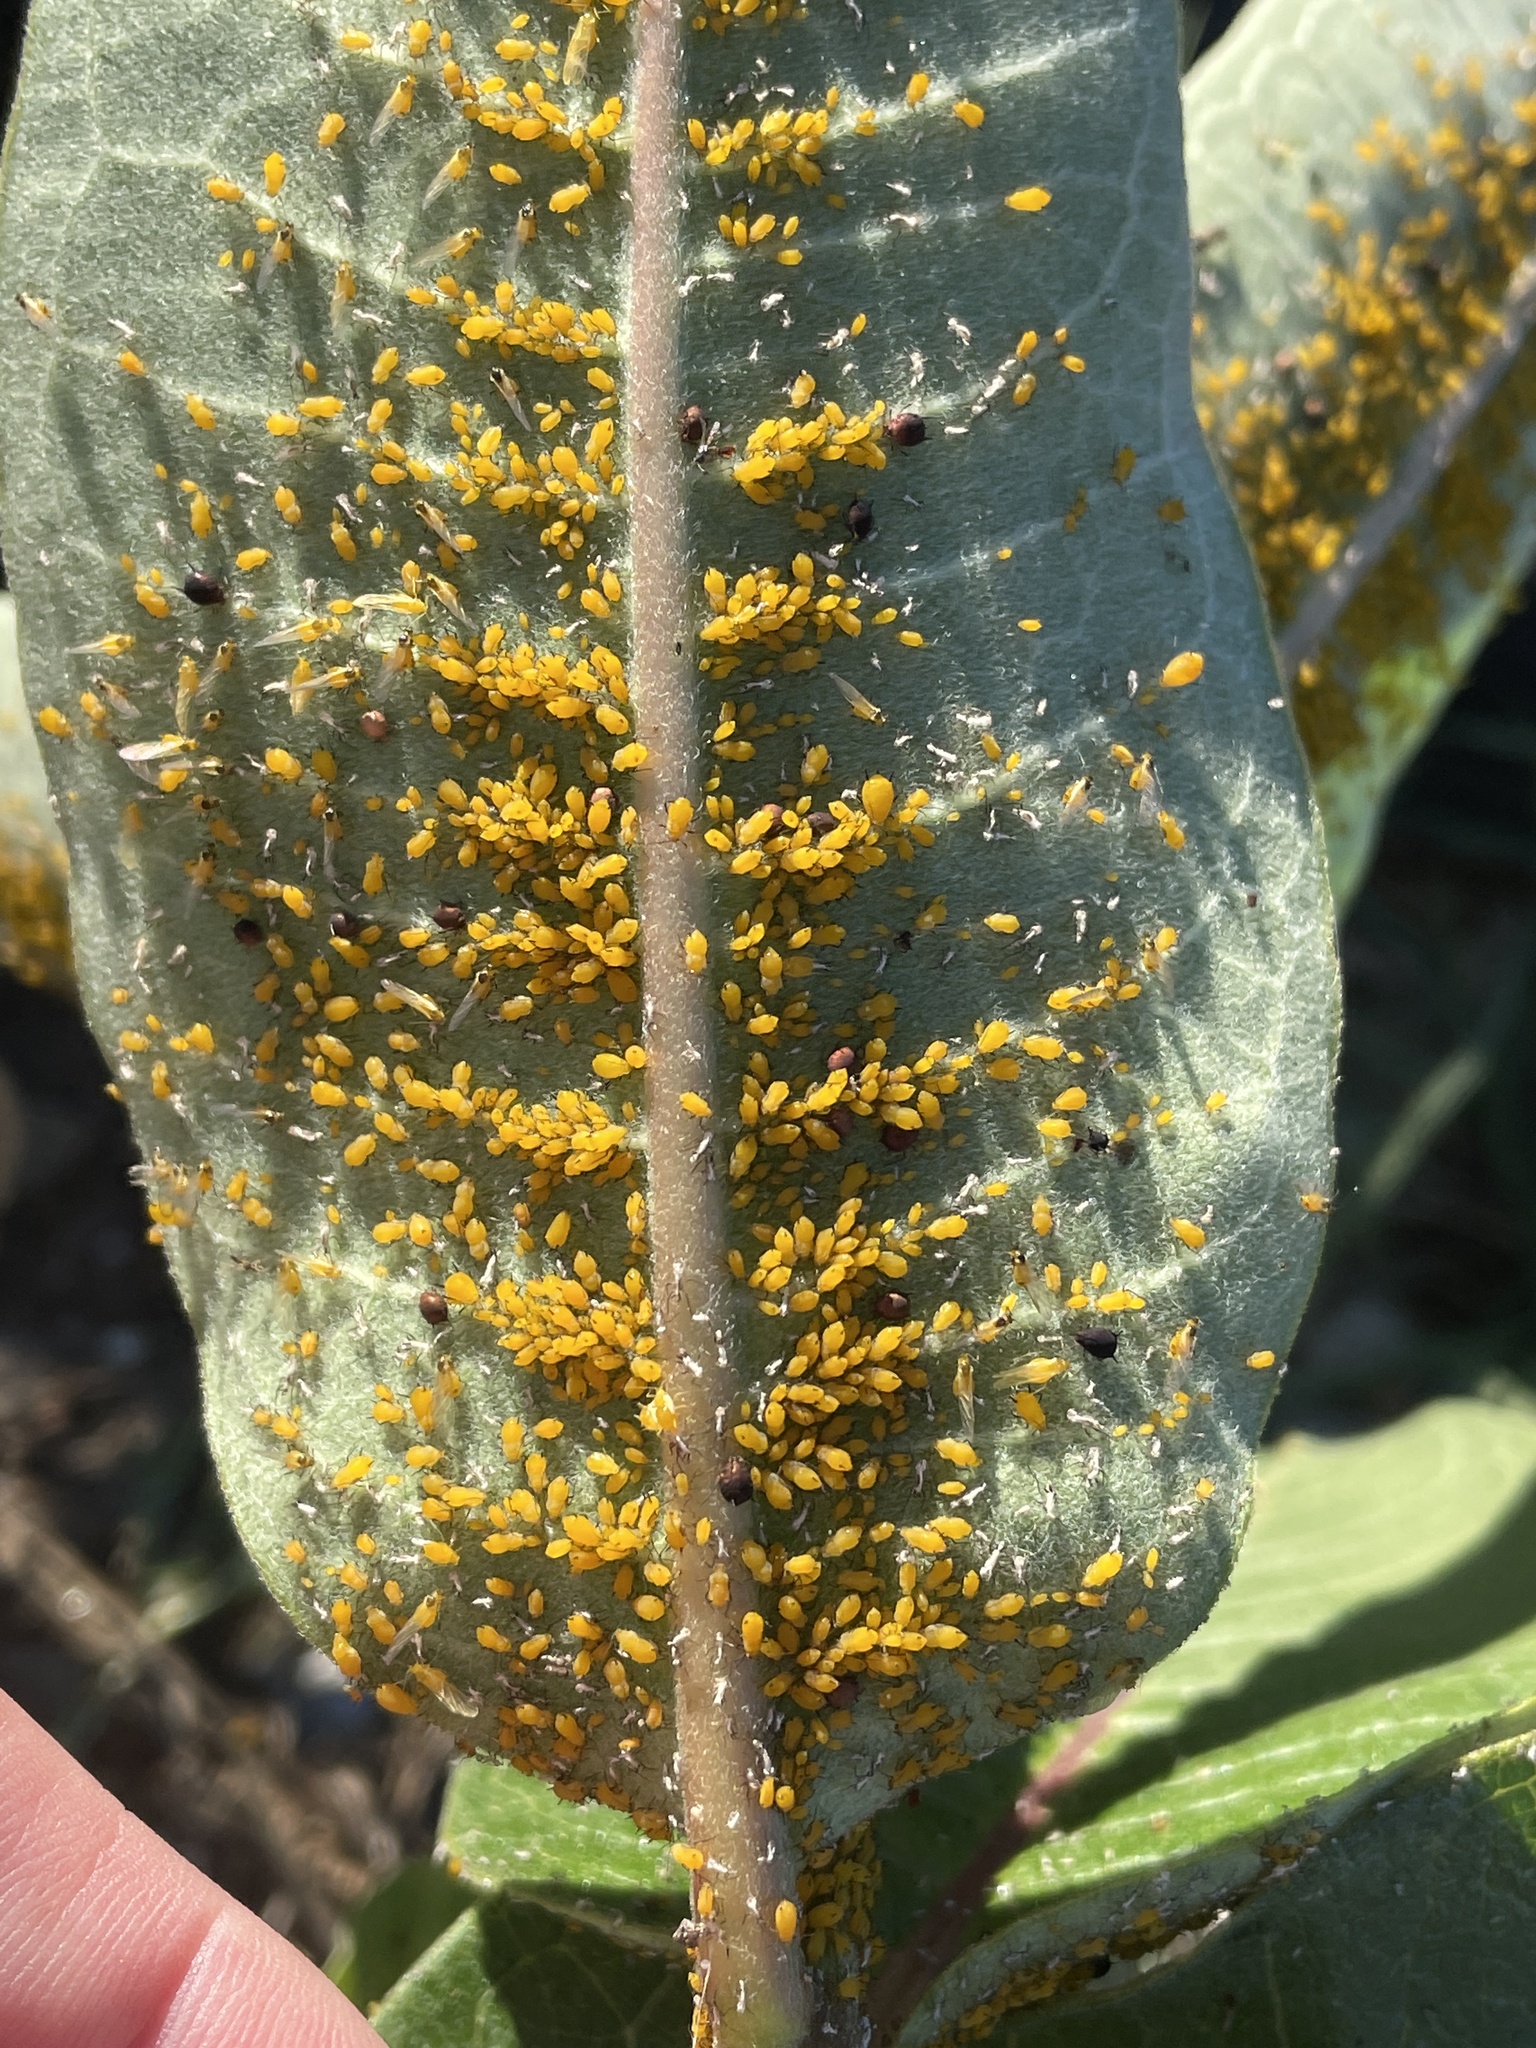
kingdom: Animalia
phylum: Arthropoda
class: Insecta
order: Hemiptera
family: Aphididae
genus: Aphis
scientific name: Aphis nerii
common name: Oleander aphid
